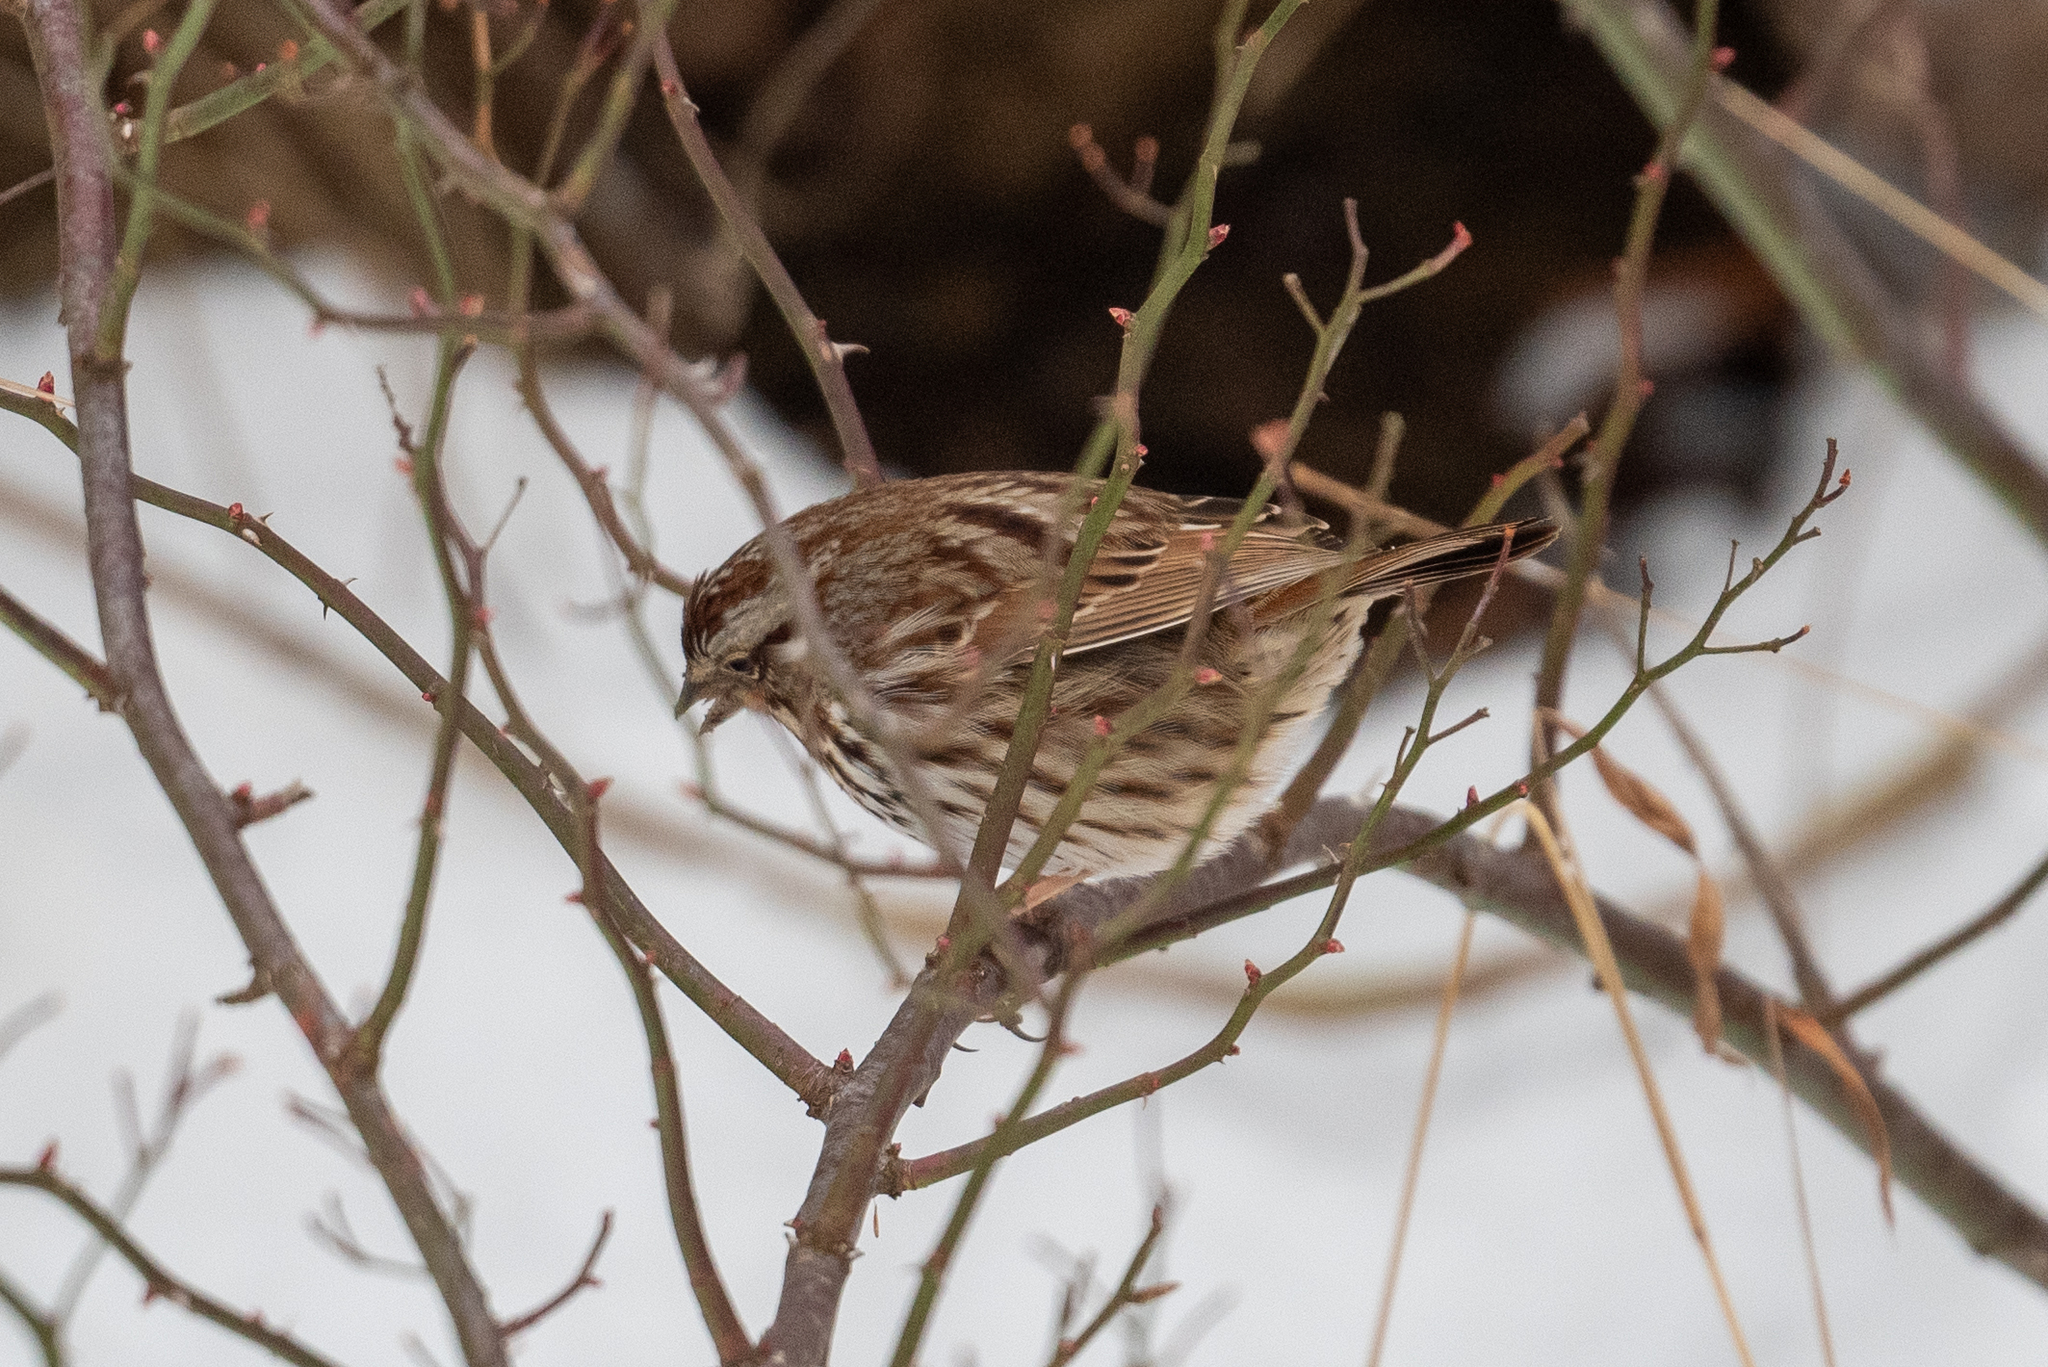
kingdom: Animalia
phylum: Chordata
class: Aves
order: Passeriformes
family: Passerellidae
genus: Melospiza
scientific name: Melospiza melodia
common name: Song sparrow
